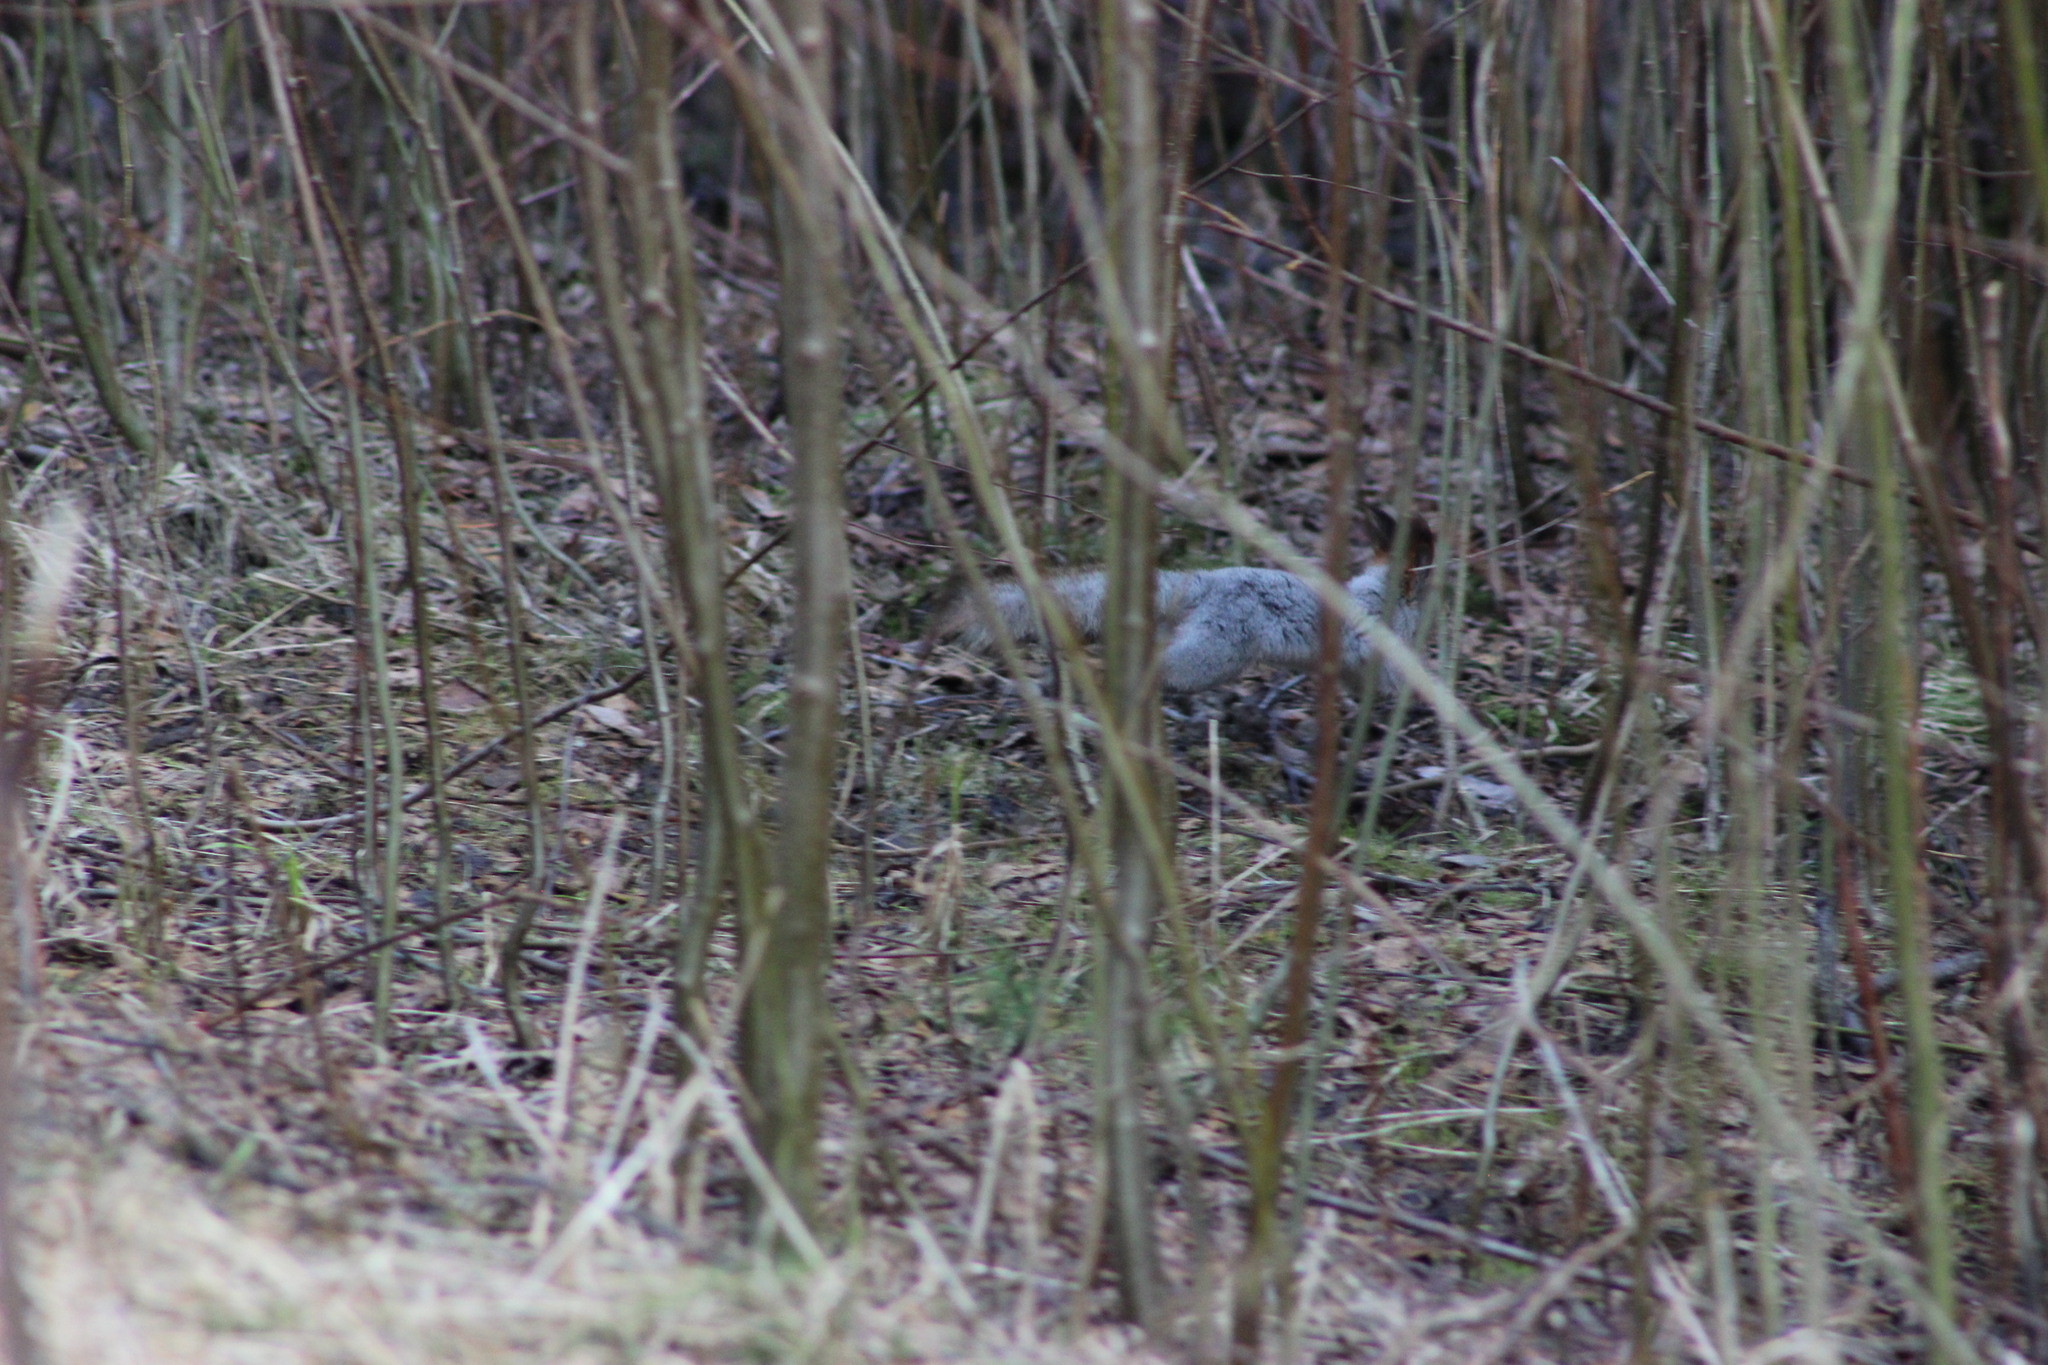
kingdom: Animalia
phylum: Chordata
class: Mammalia
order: Rodentia
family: Sciuridae
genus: Sciurus
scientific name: Sciurus vulgaris
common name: Eurasian red squirrel
